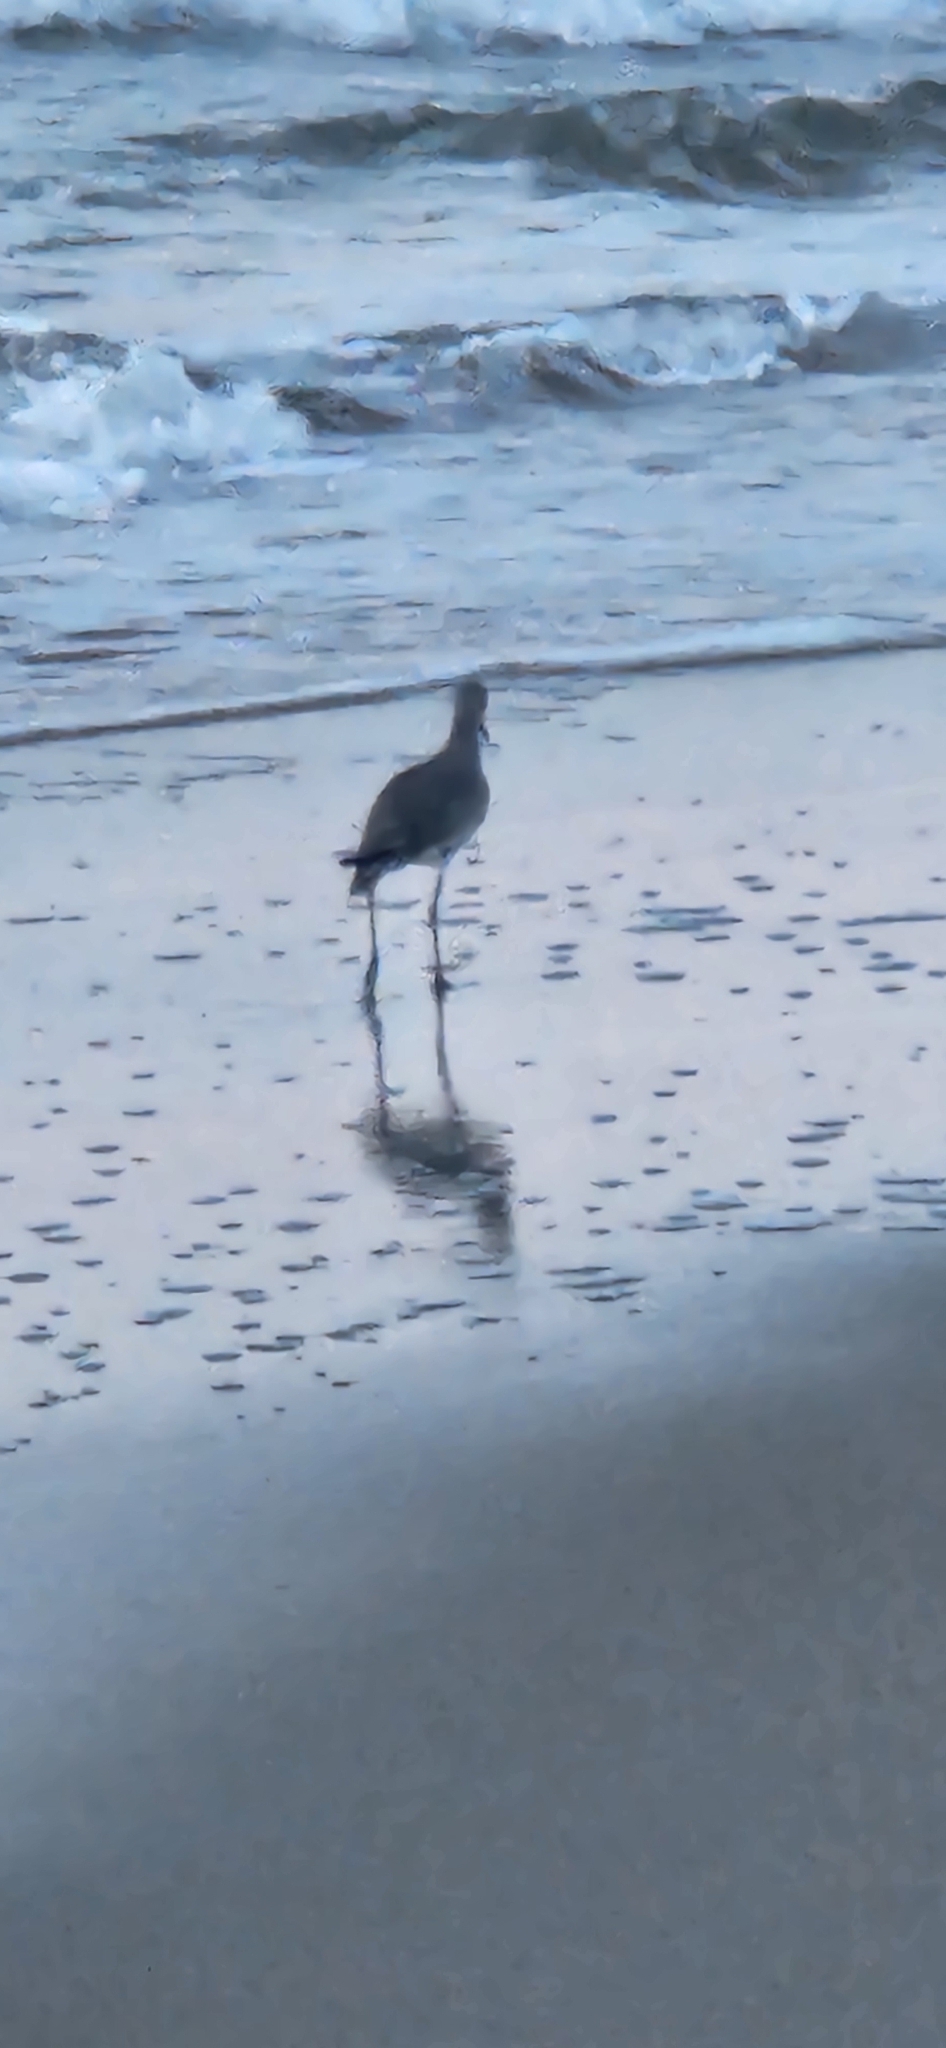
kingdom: Animalia
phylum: Chordata
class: Aves
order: Charadriiformes
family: Scolopacidae
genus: Tringa
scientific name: Tringa semipalmata
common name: Willet
